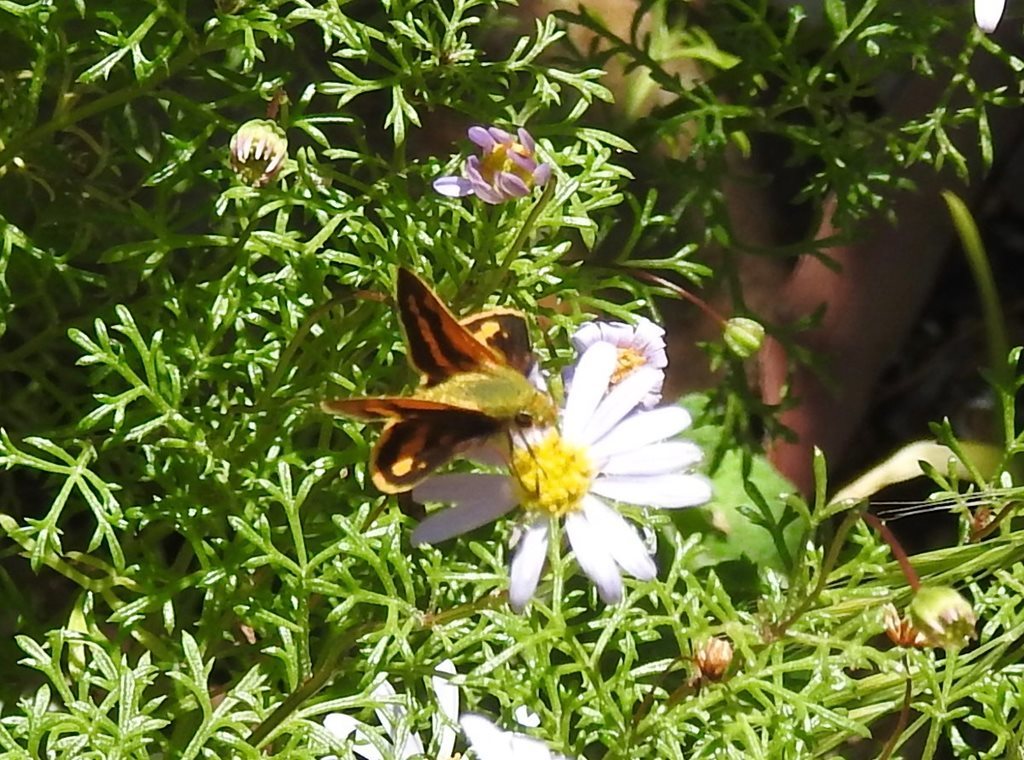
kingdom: Animalia
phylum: Arthropoda
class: Insecta
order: Lepidoptera
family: Hesperiidae
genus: Ocybadistes
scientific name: Ocybadistes walkeri
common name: Yellow-banded dart
